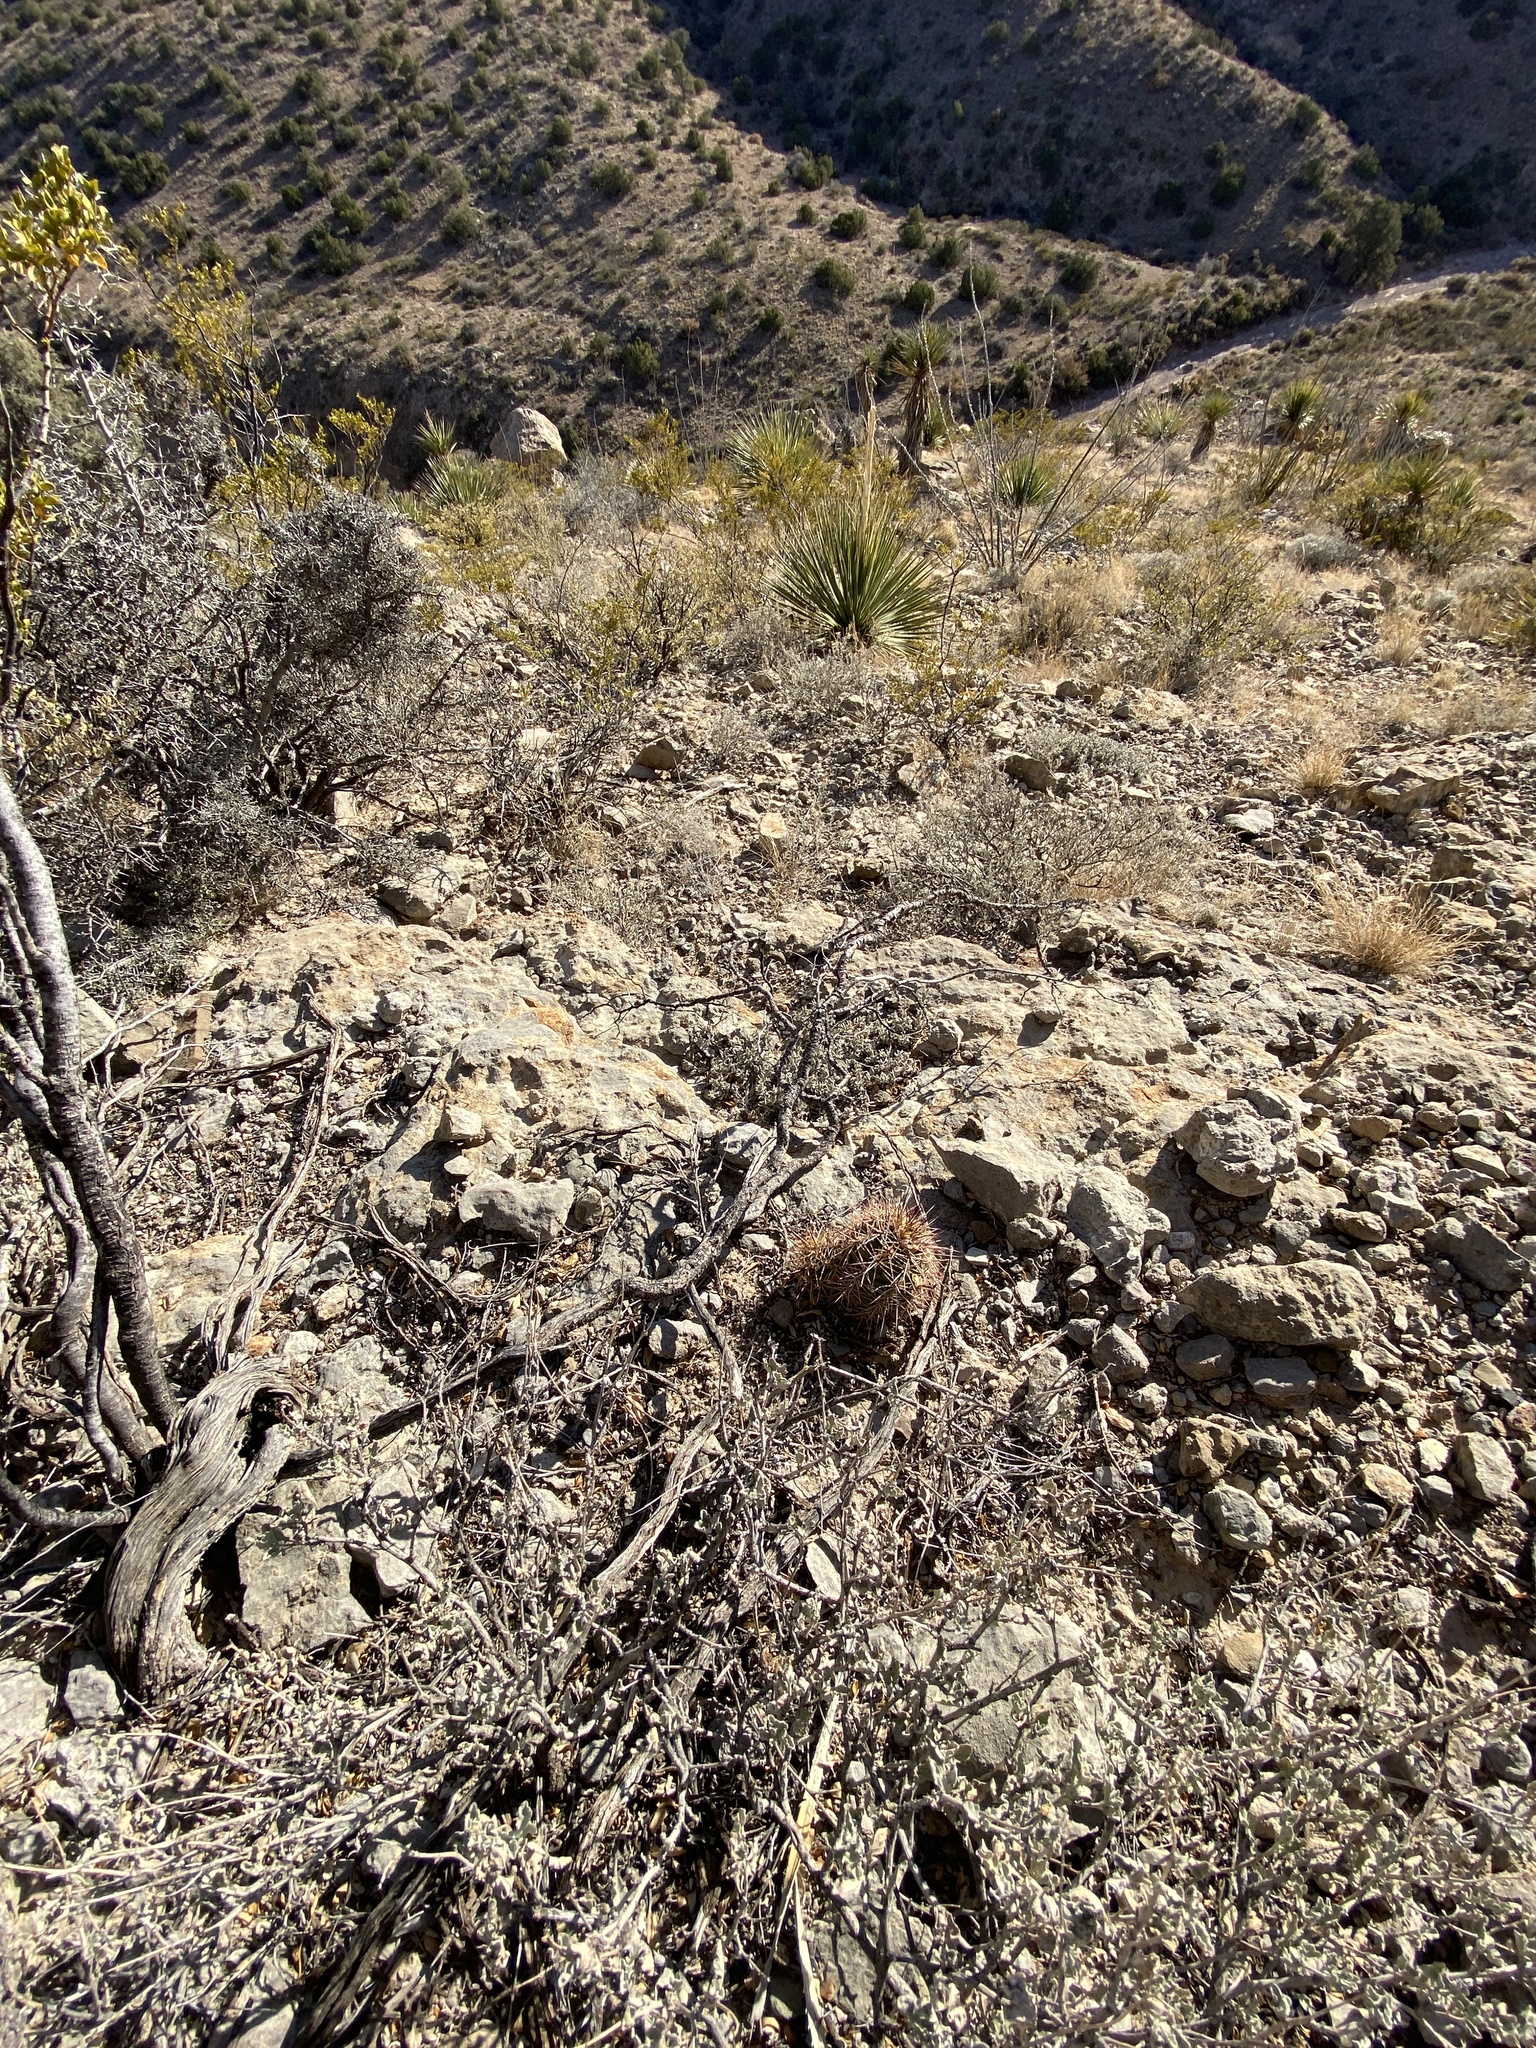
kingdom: Plantae
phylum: Tracheophyta
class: Magnoliopsida
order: Caryophyllales
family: Cactaceae
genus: Echinocereus
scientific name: Echinocereus coccineus
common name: Scarlet hedgehog cactus
